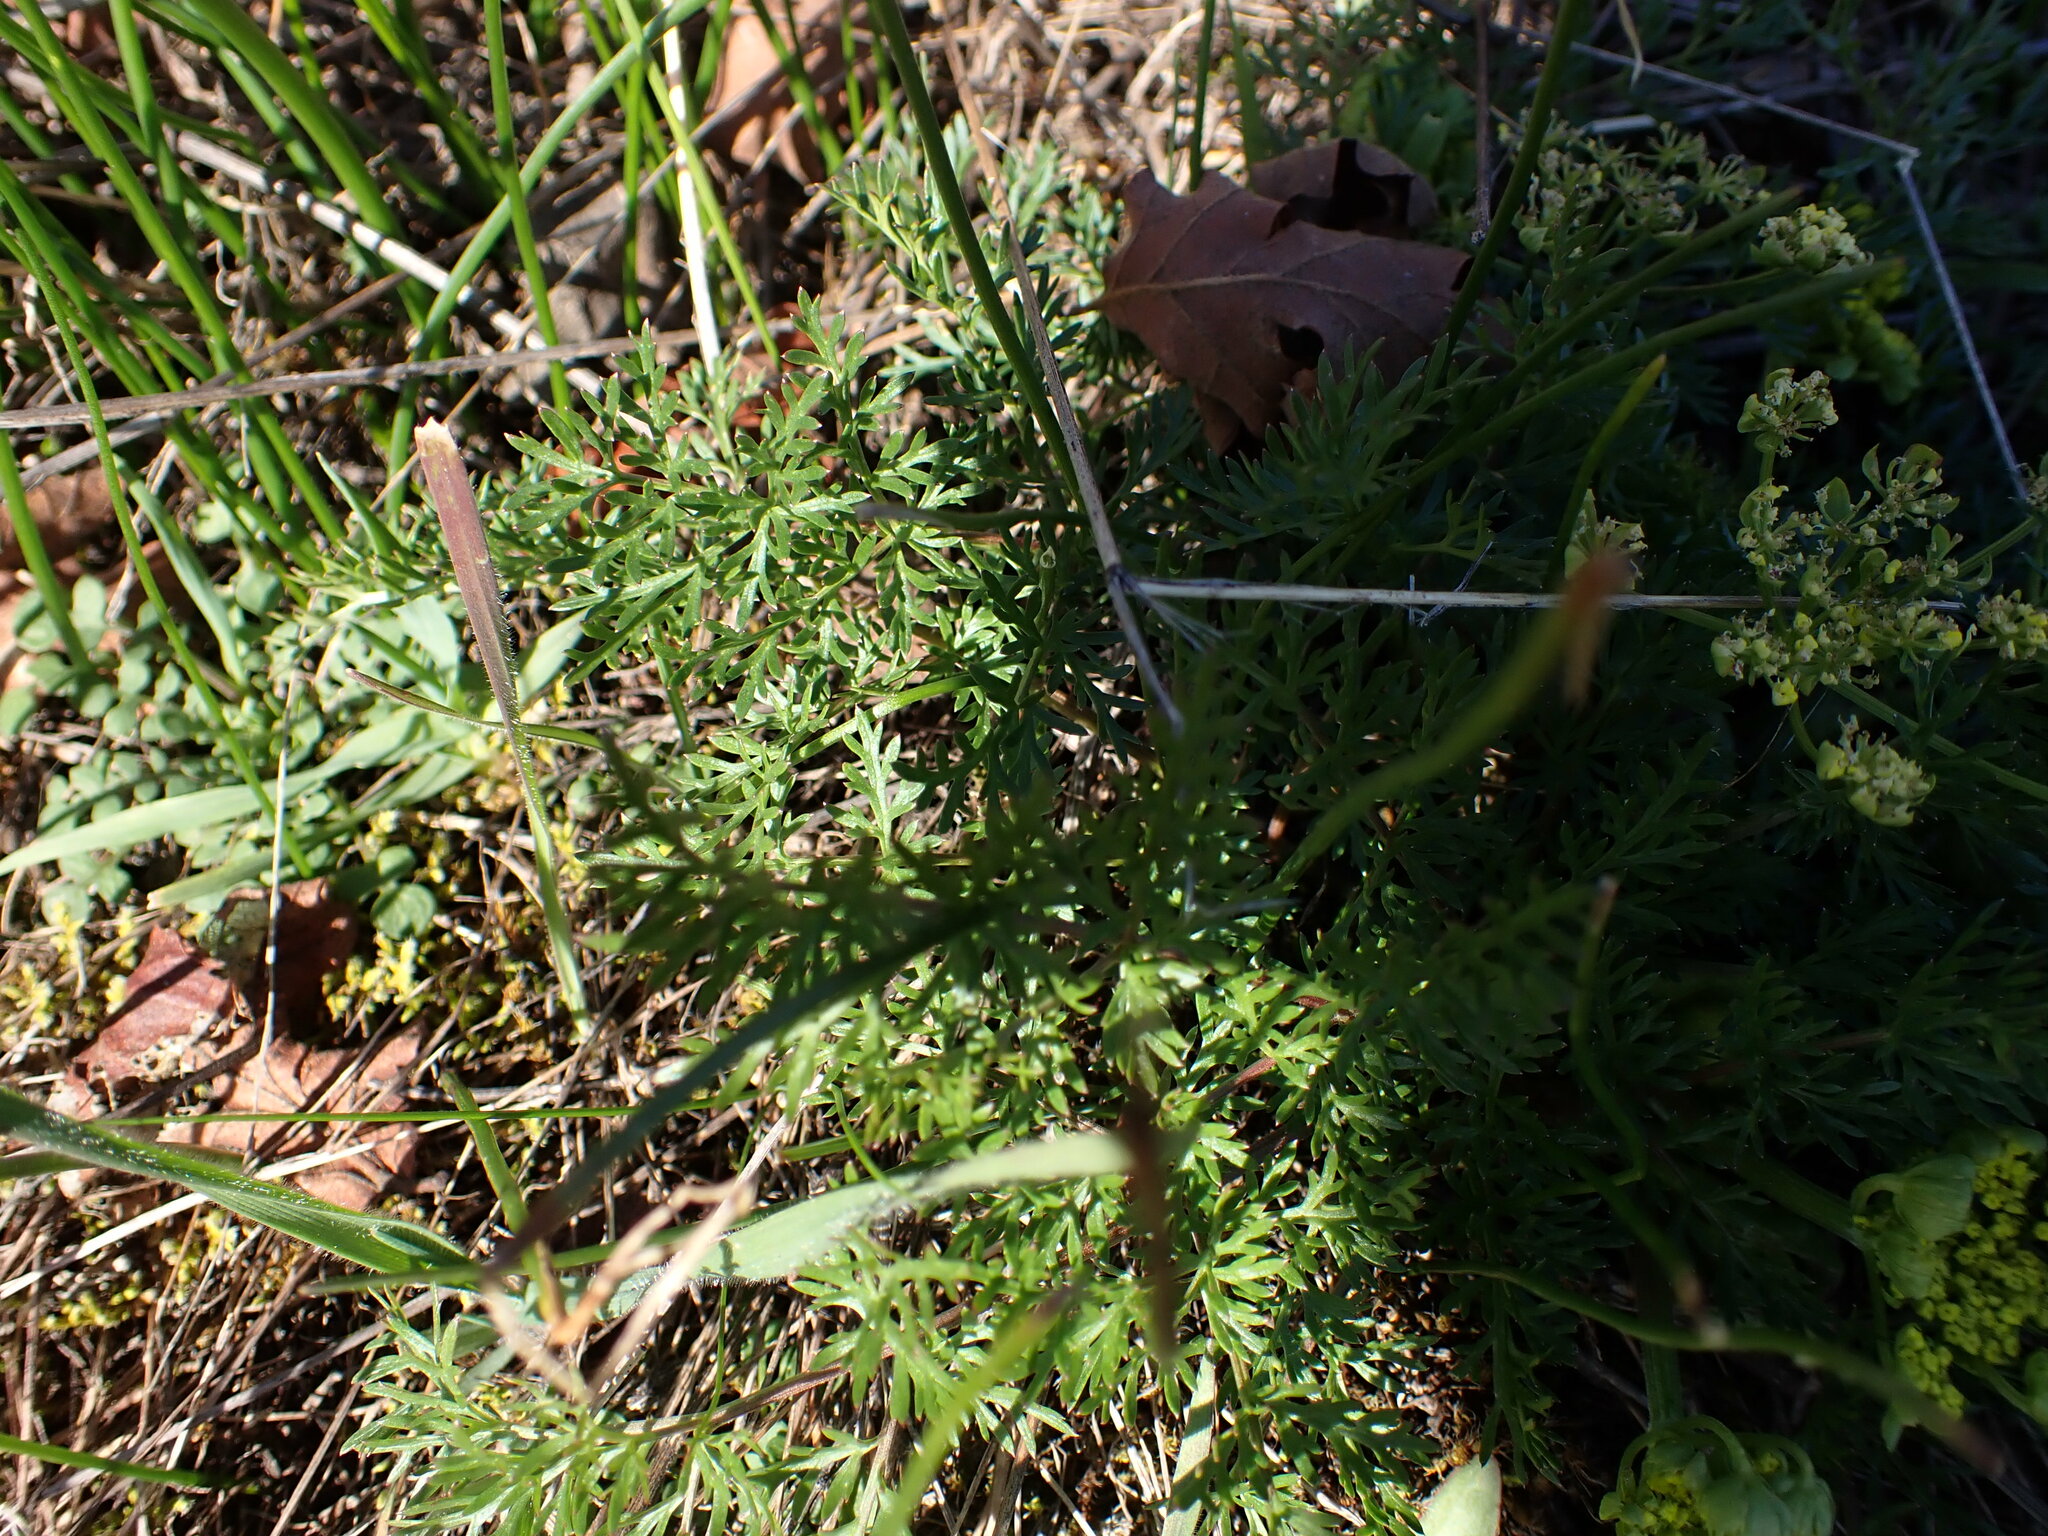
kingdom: Plantae
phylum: Tracheophyta
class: Magnoliopsida
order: Apiales
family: Apiaceae
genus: Lomatium
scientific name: Lomatium utriculatum
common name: Fine-leaf desert-parsley
